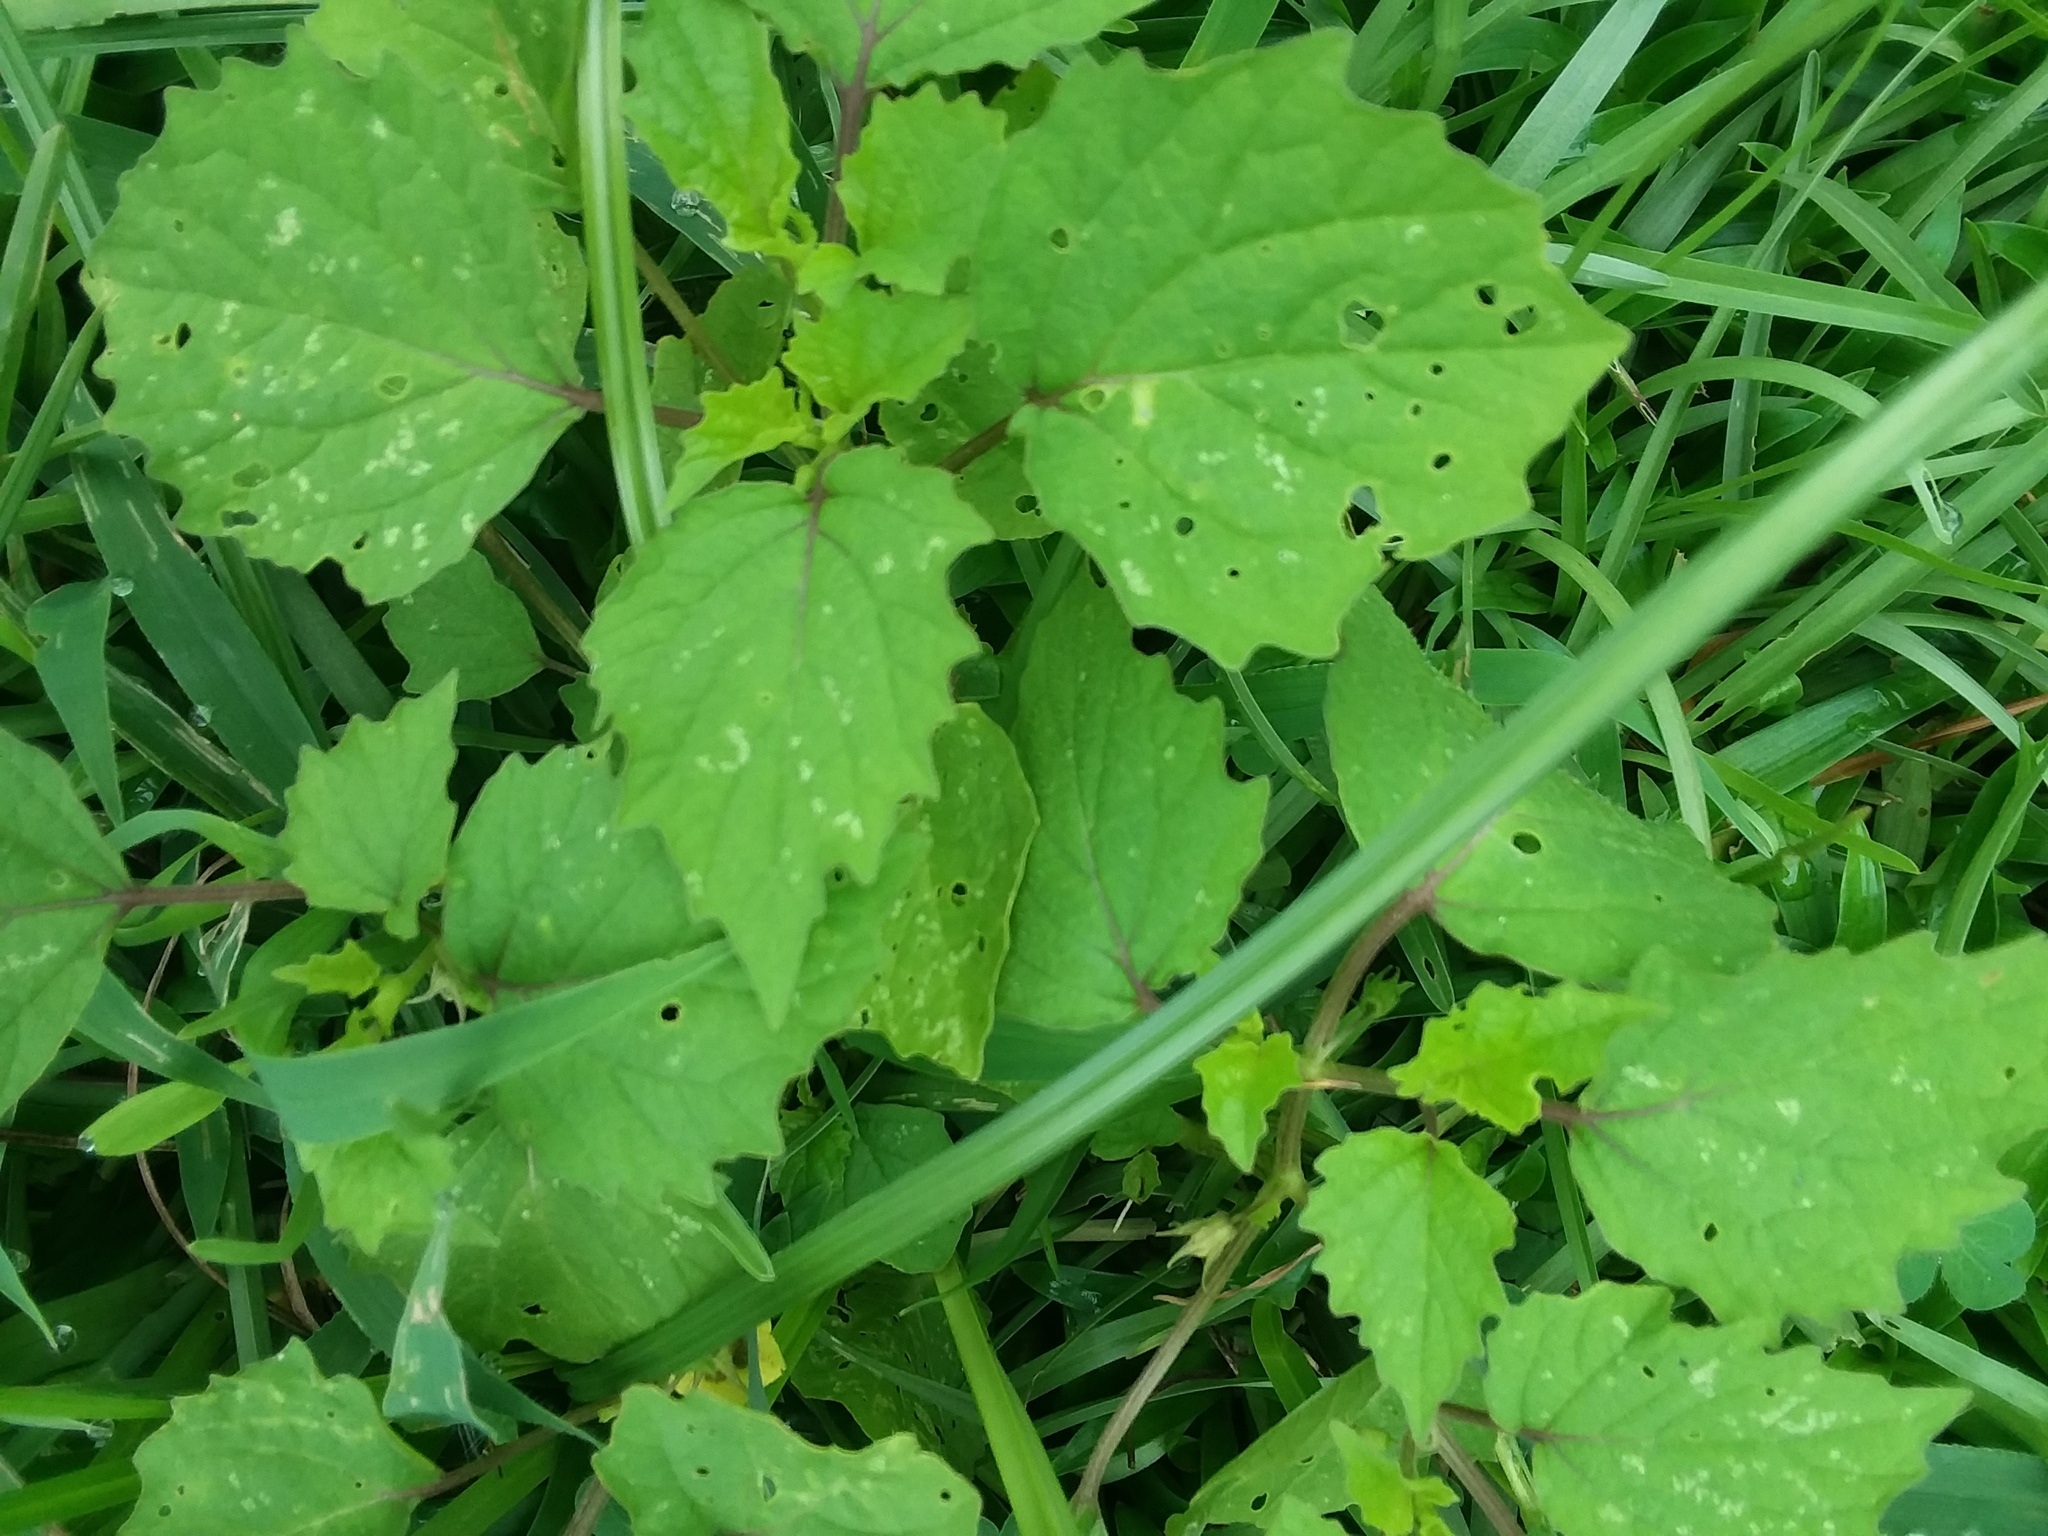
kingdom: Plantae
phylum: Tracheophyta
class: Magnoliopsida
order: Solanales
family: Solanaceae
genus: Physalis
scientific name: Physalis cordata
